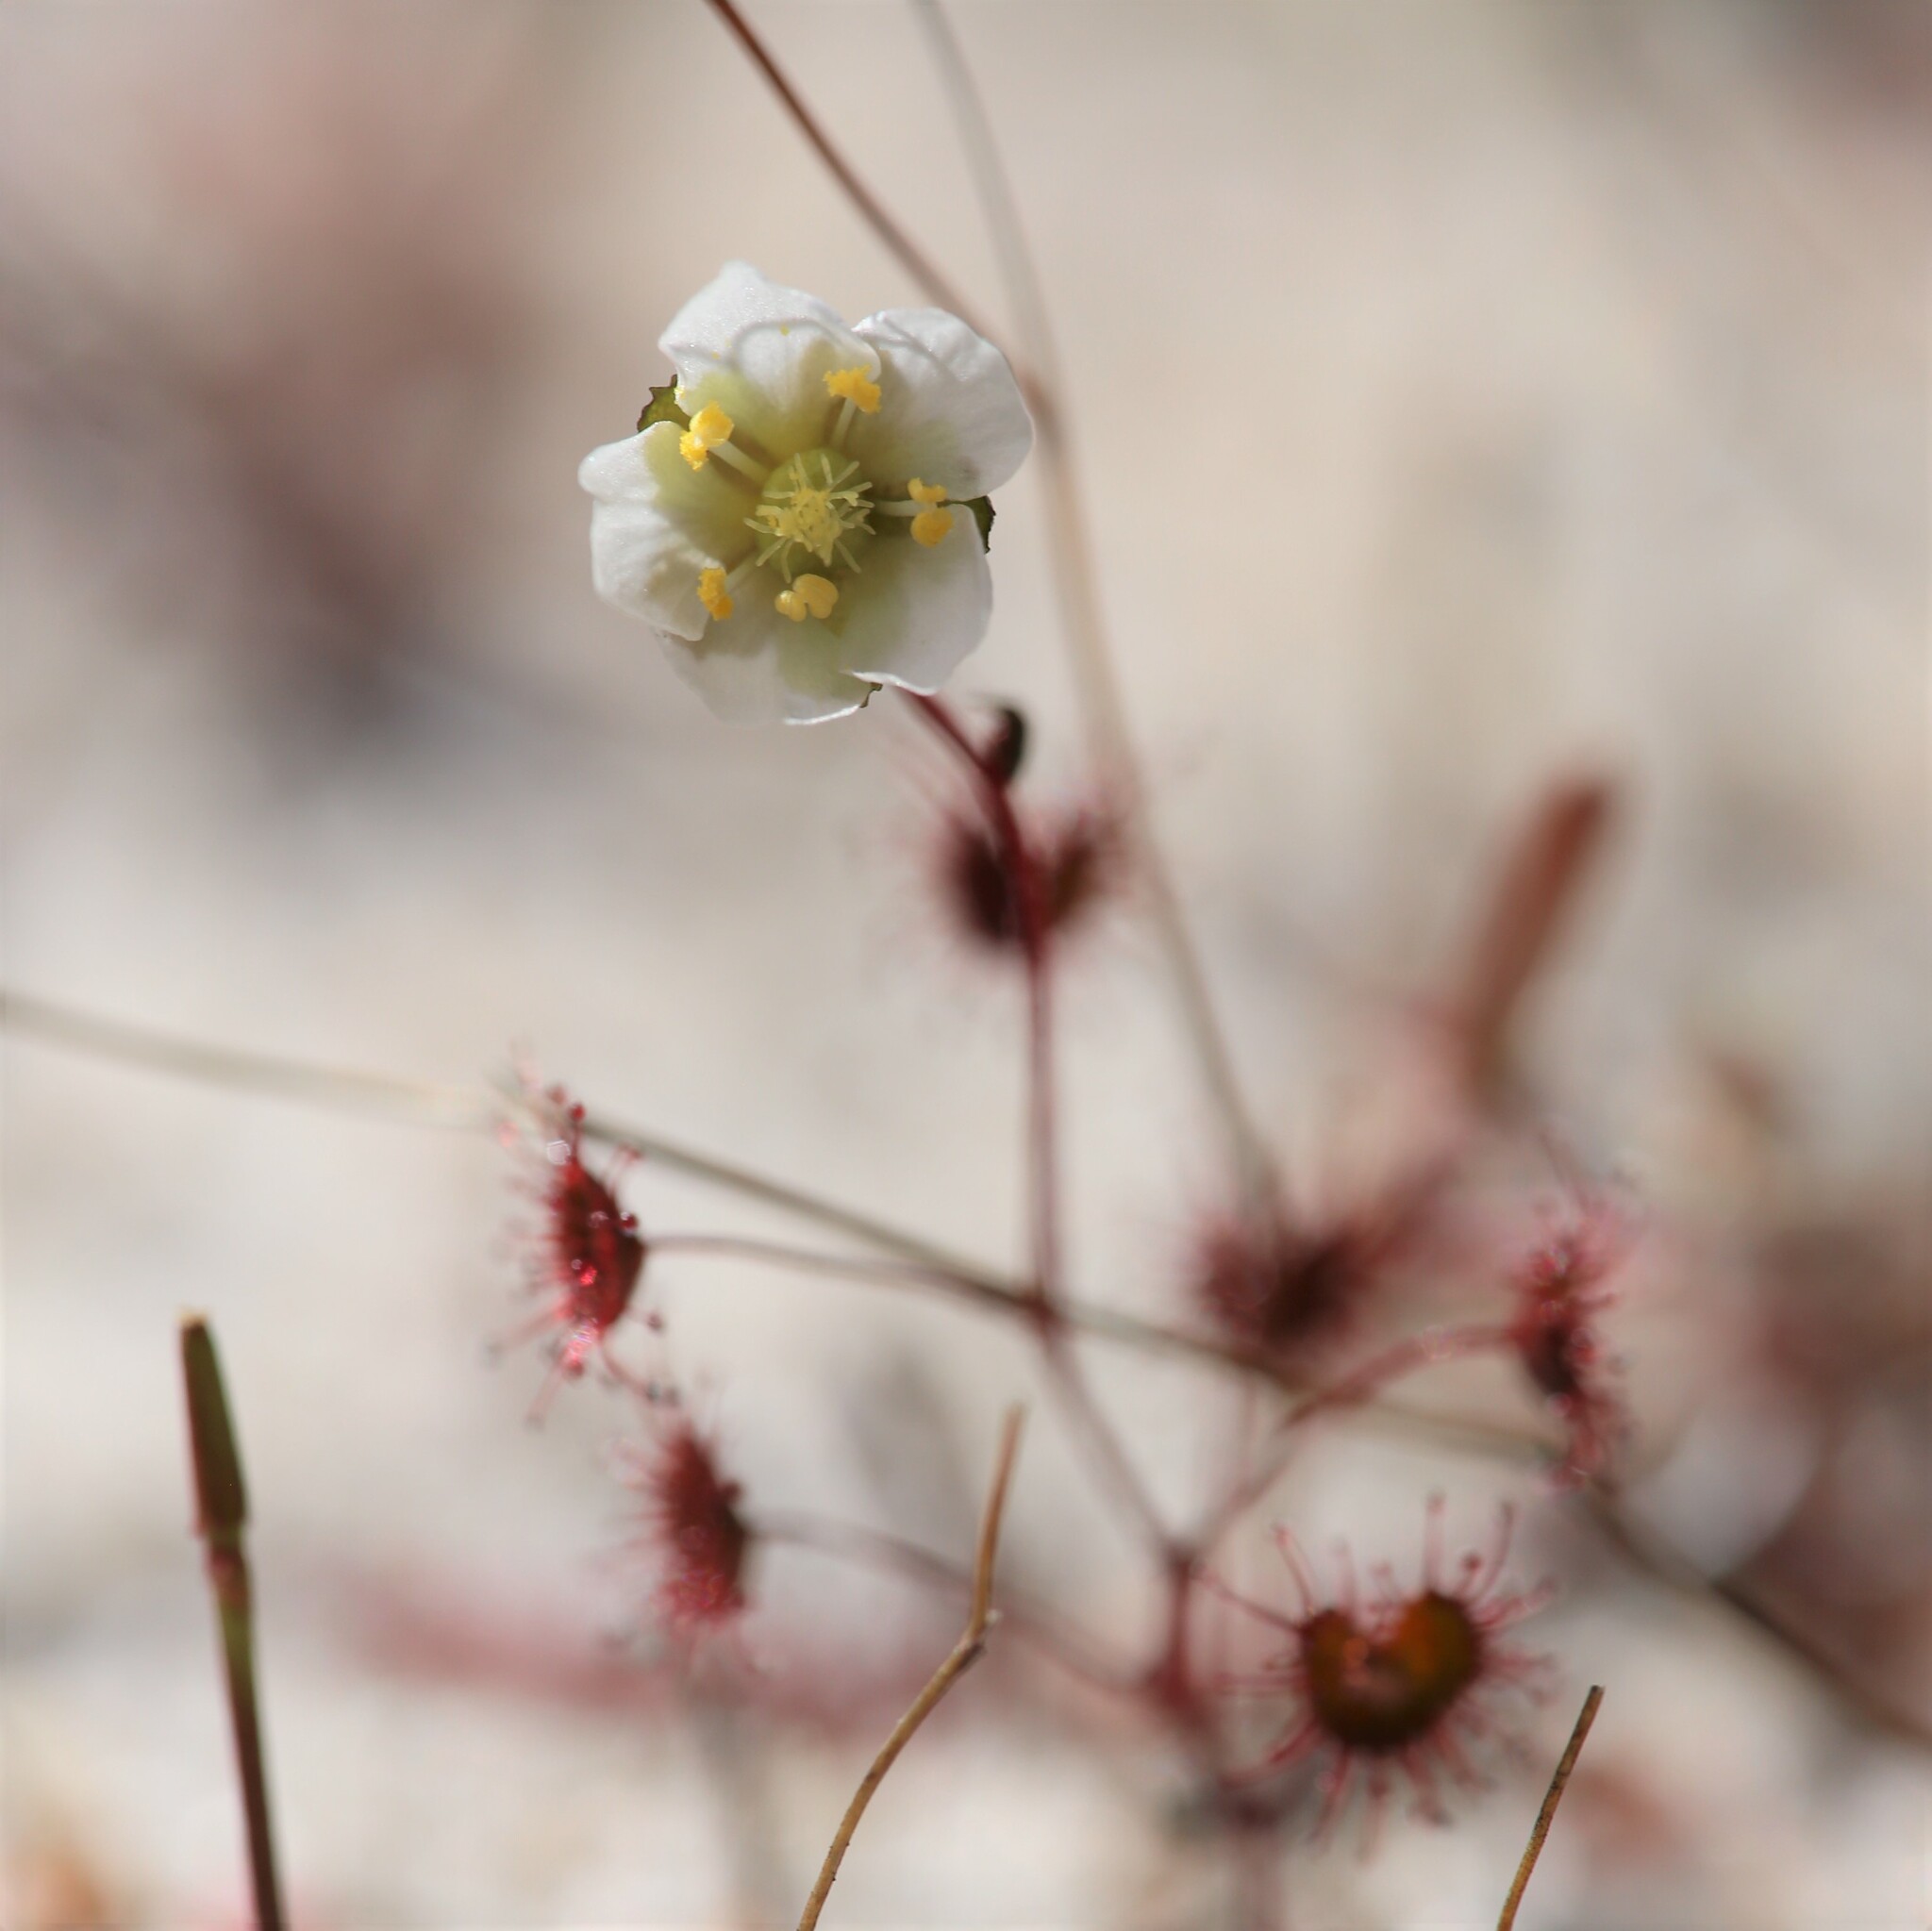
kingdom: Plantae
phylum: Tracheophyta
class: Magnoliopsida
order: Caryophyllales
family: Droseraceae
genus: Drosera
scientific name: Drosera salina
